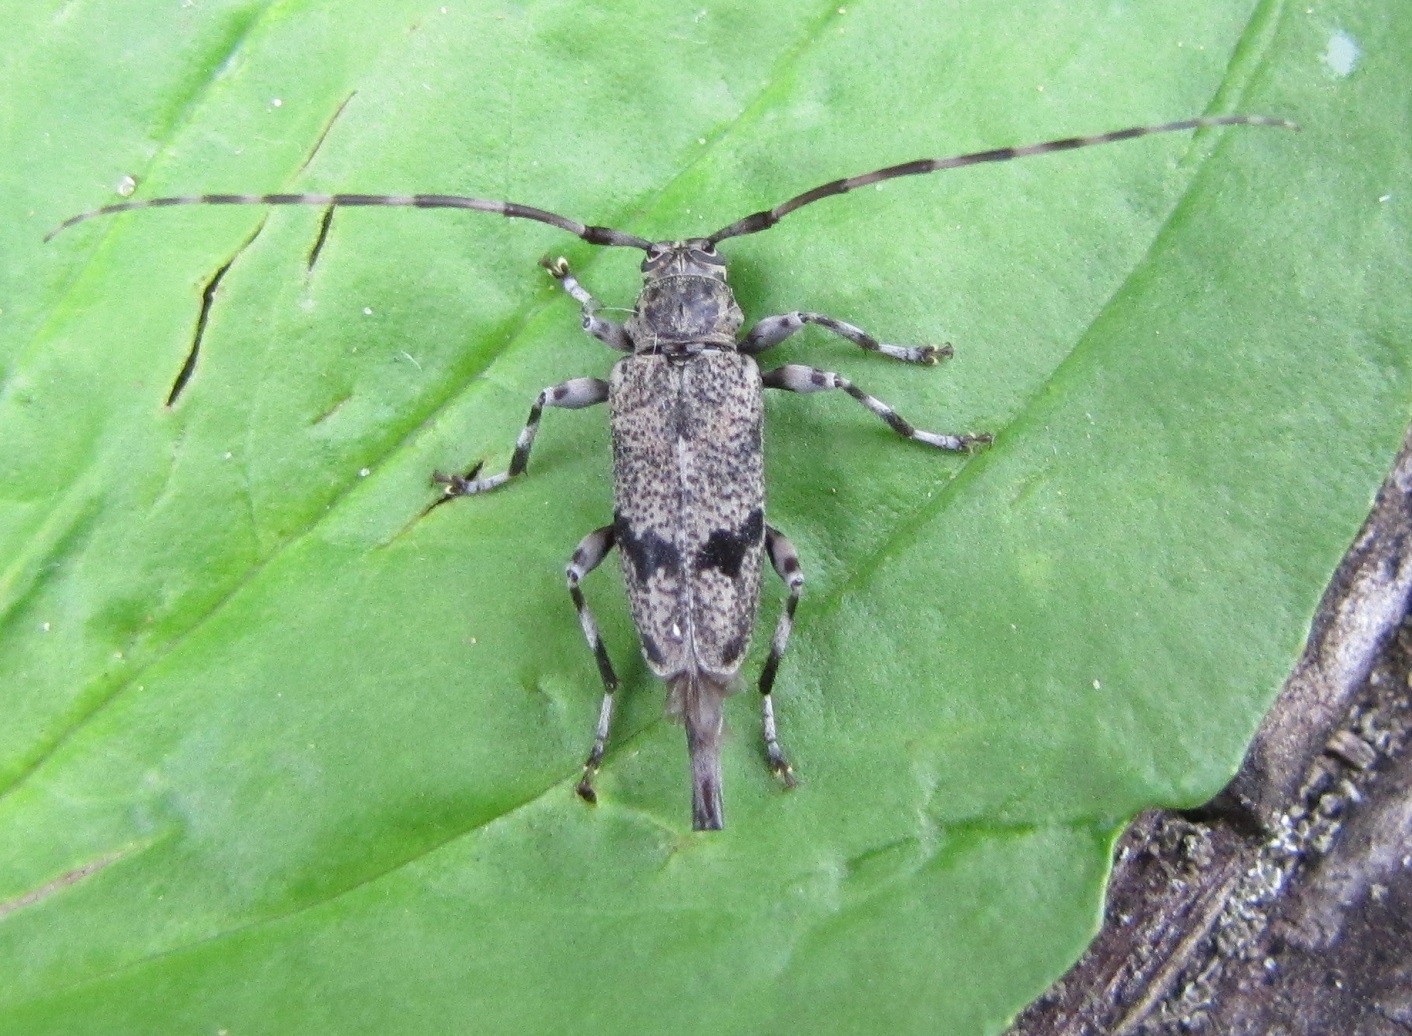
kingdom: Animalia
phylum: Arthropoda
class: Insecta
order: Coleoptera
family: Cerambycidae
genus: Graphisurus
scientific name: Graphisurus despectus
